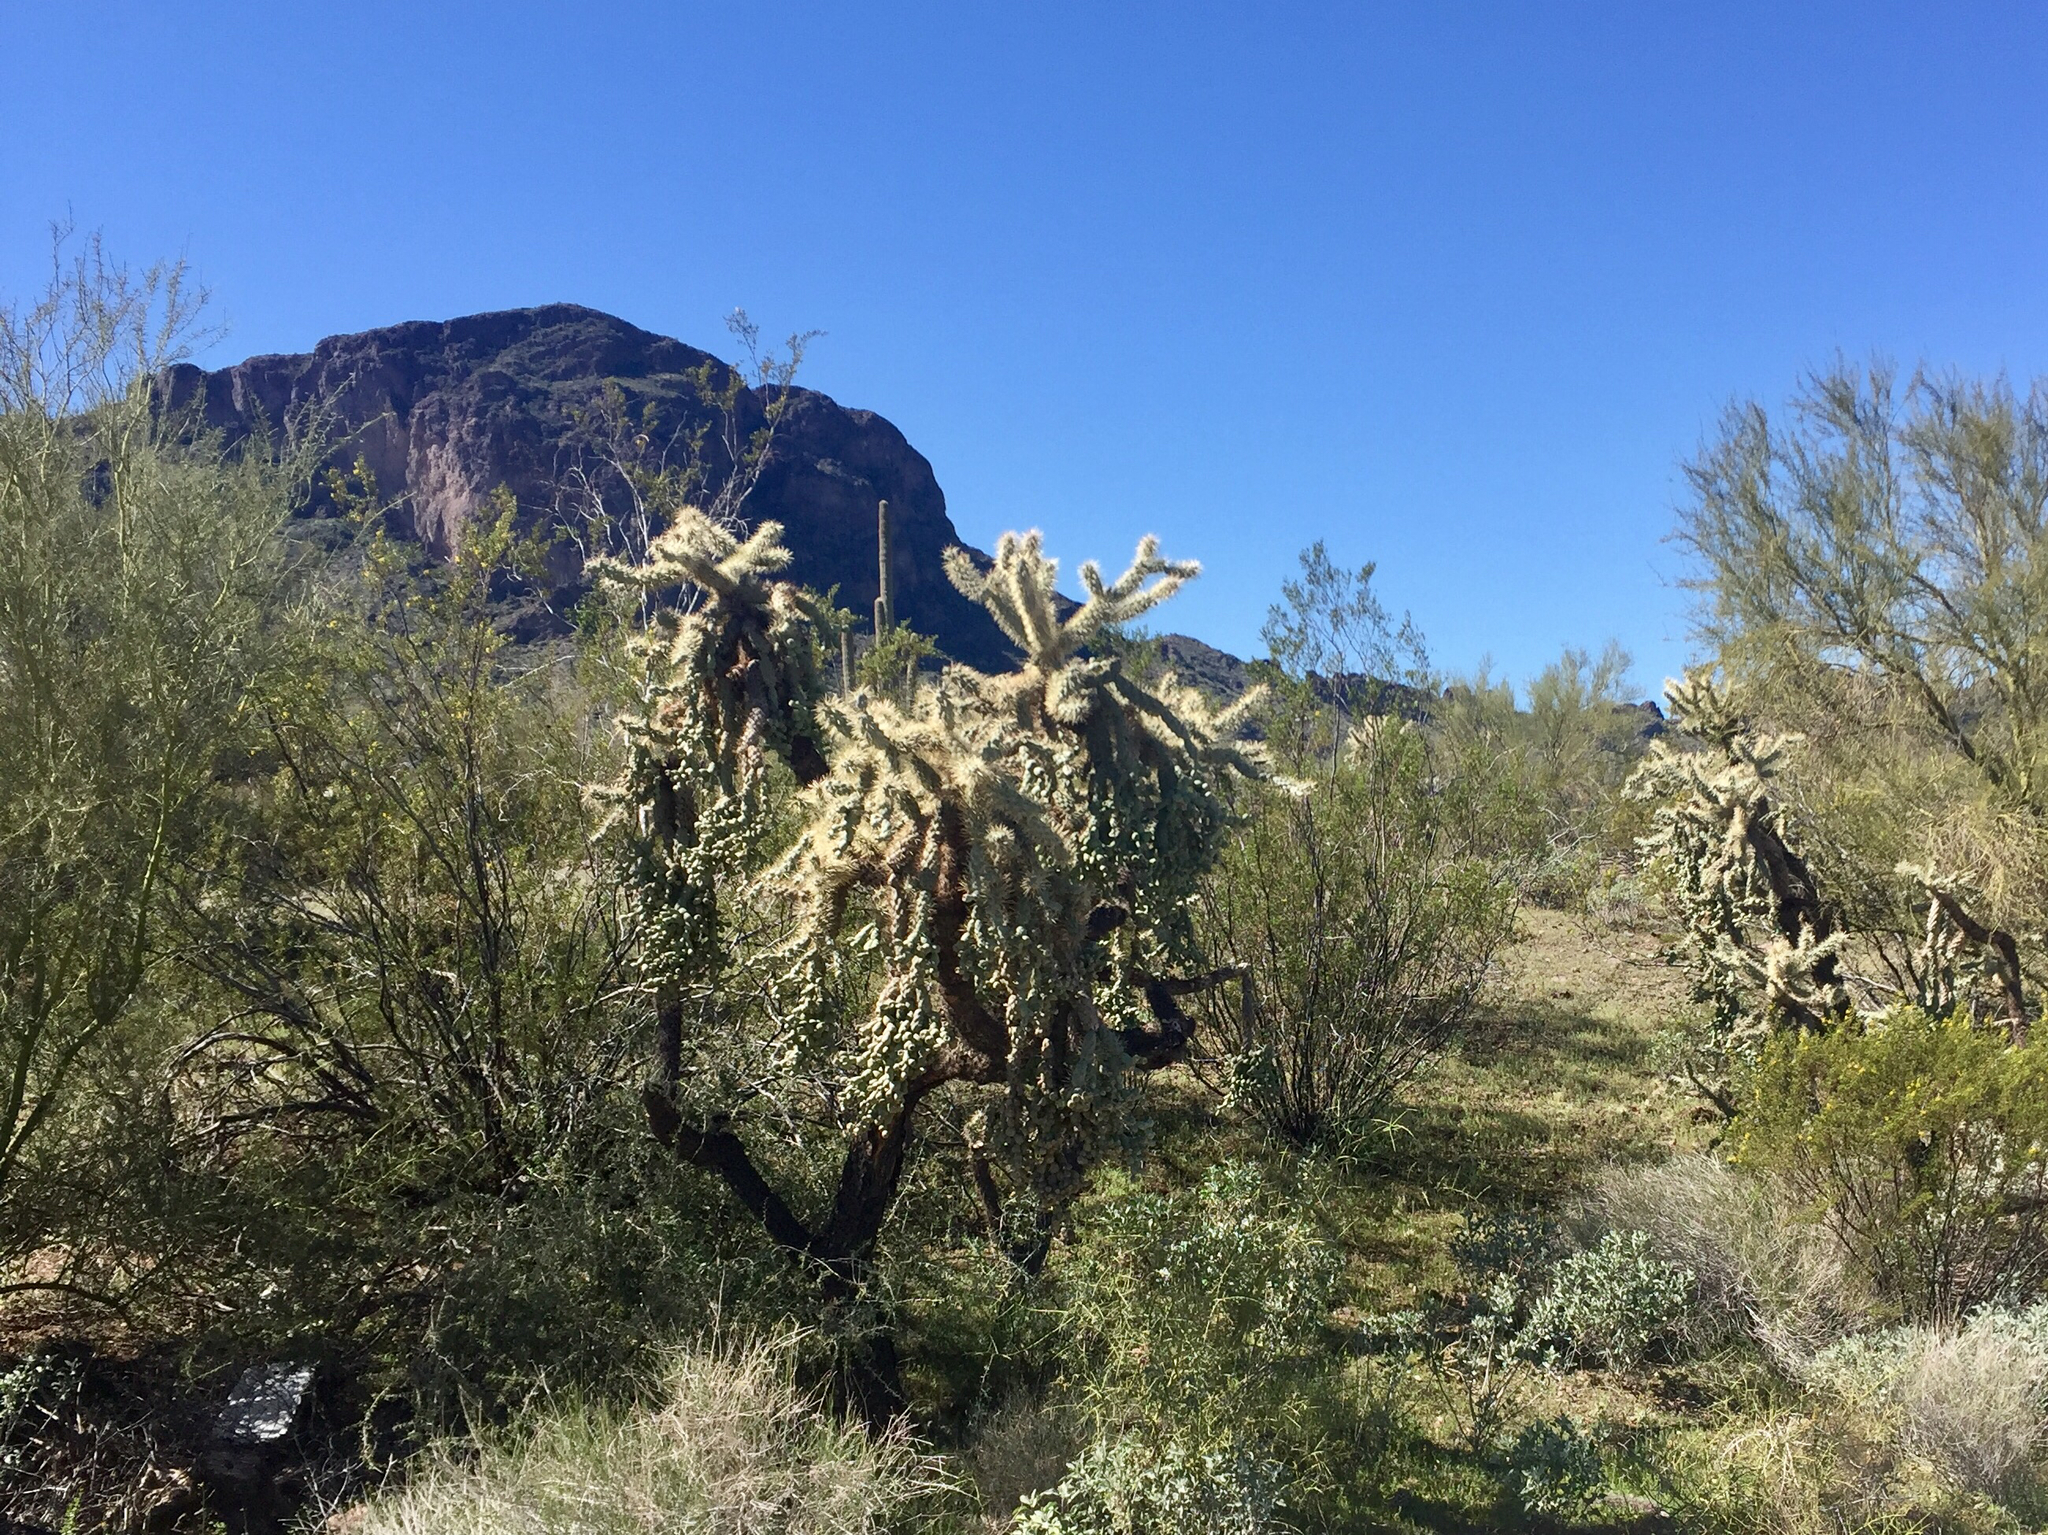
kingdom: Plantae
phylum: Tracheophyta
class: Magnoliopsida
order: Caryophyllales
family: Cactaceae
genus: Cylindropuntia
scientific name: Cylindropuntia fulgida
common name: Jumping cholla
